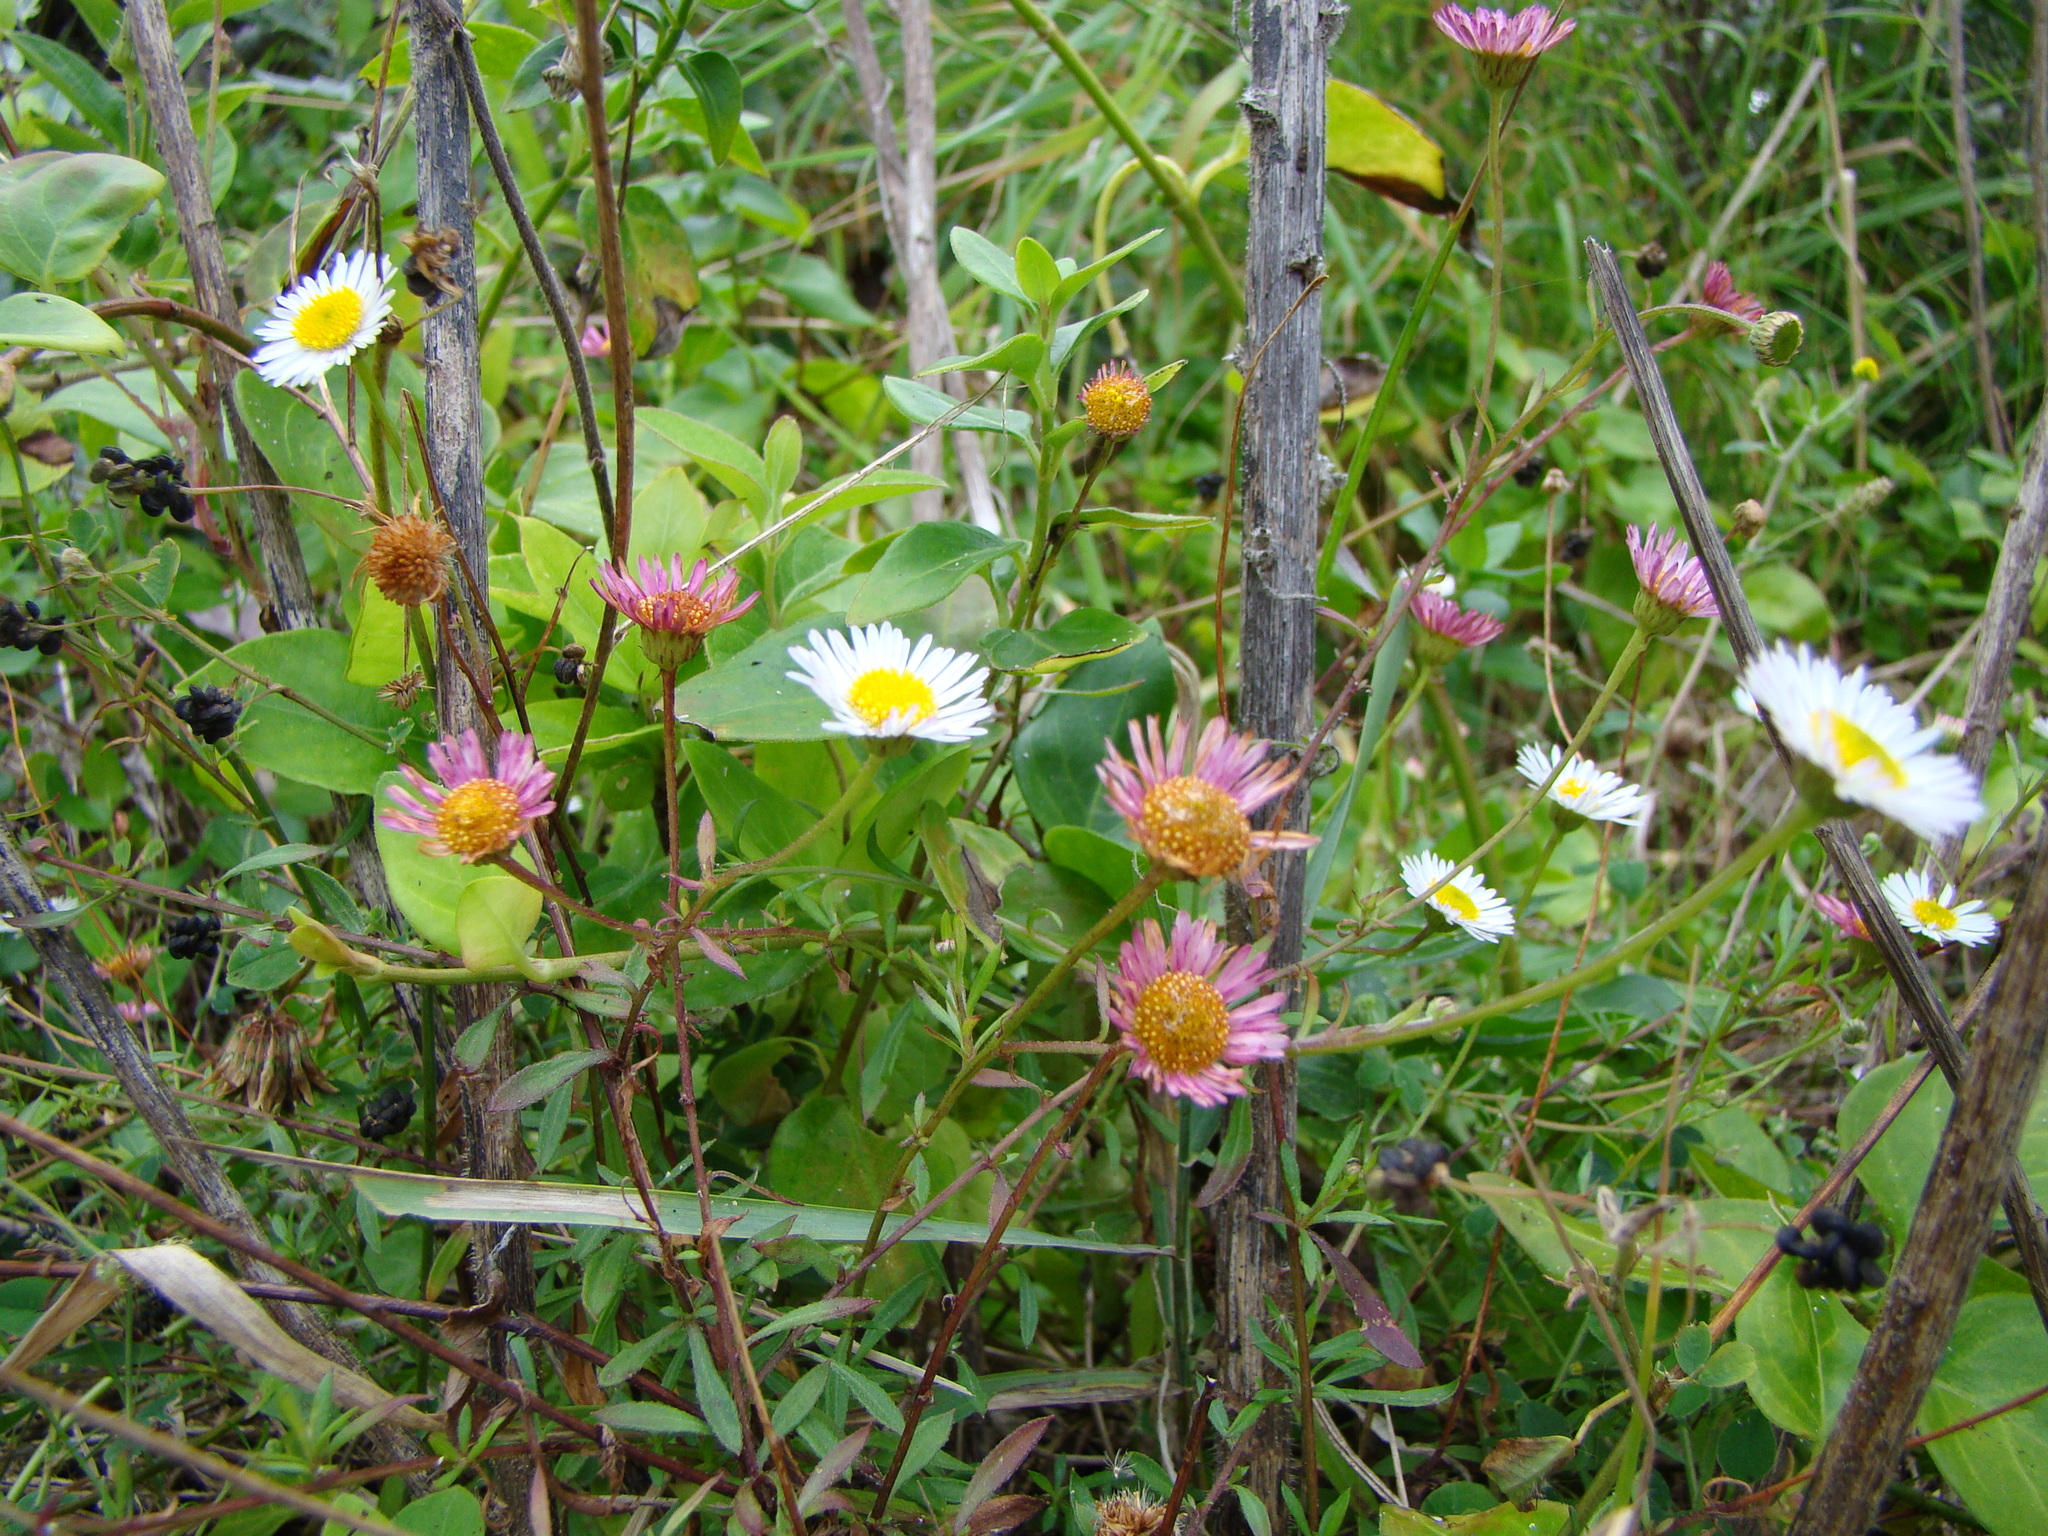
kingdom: Plantae
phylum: Tracheophyta
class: Magnoliopsida
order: Asterales
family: Asteraceae
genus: Erigeron
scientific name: Erigeron karvinskianus
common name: Mexican fleabane
